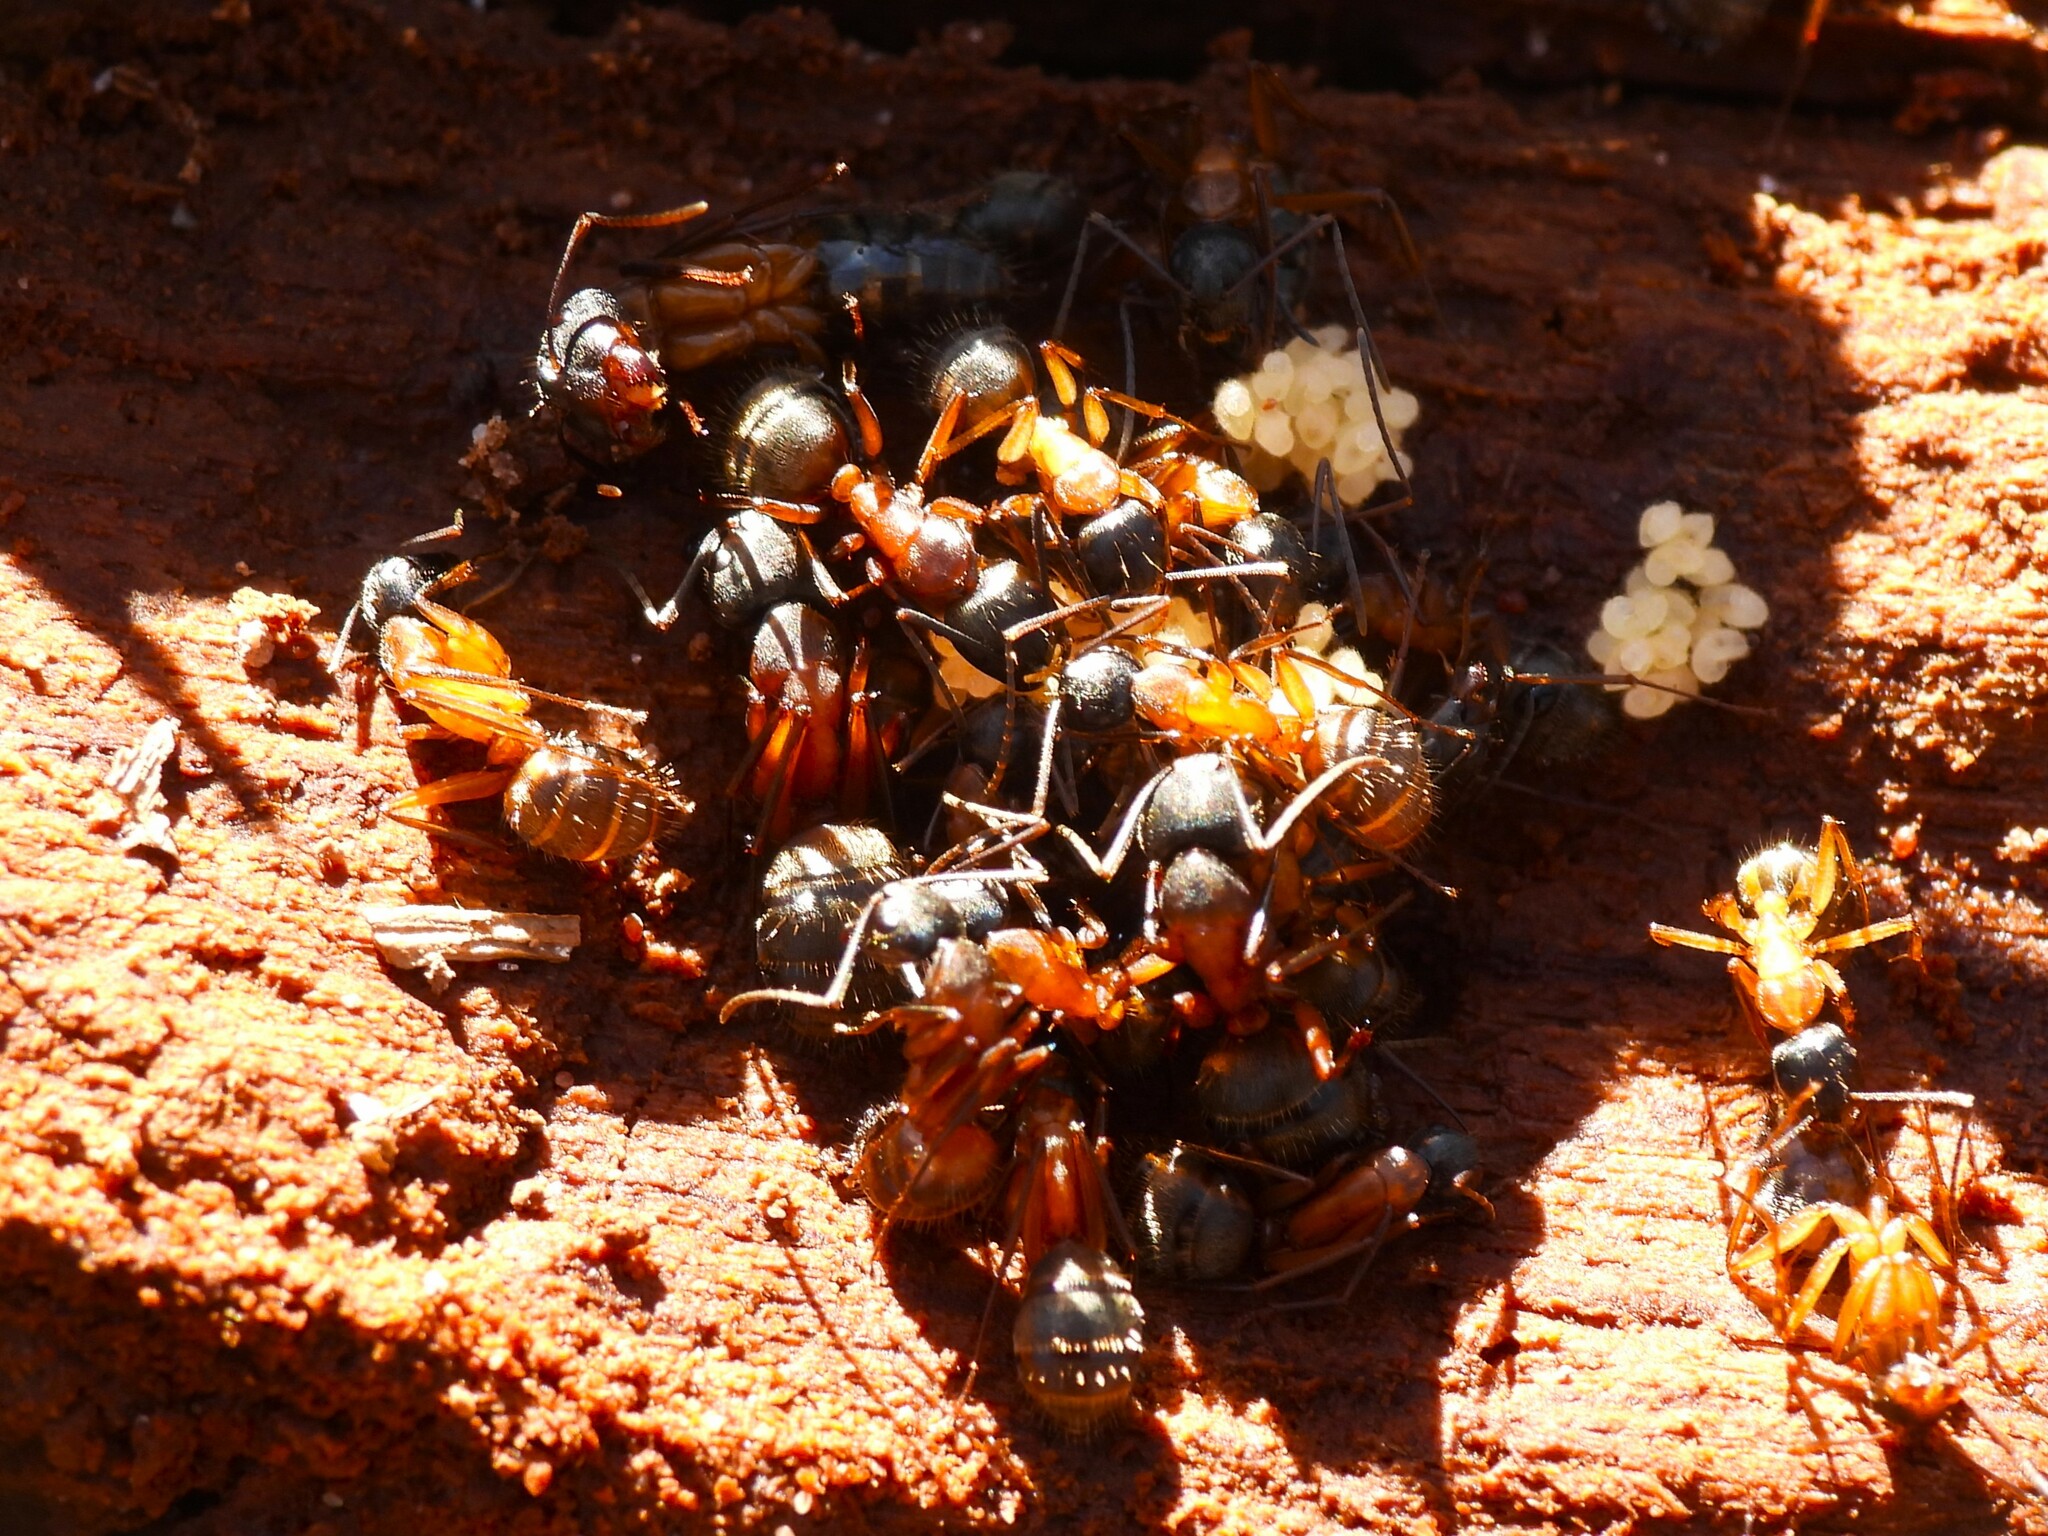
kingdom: Animalia
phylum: Arthropoda
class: Insecta
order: Hymenoptera
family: Formicidae
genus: Camponotus
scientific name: Camponotus chromaiodes
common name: Red carpenter ant
